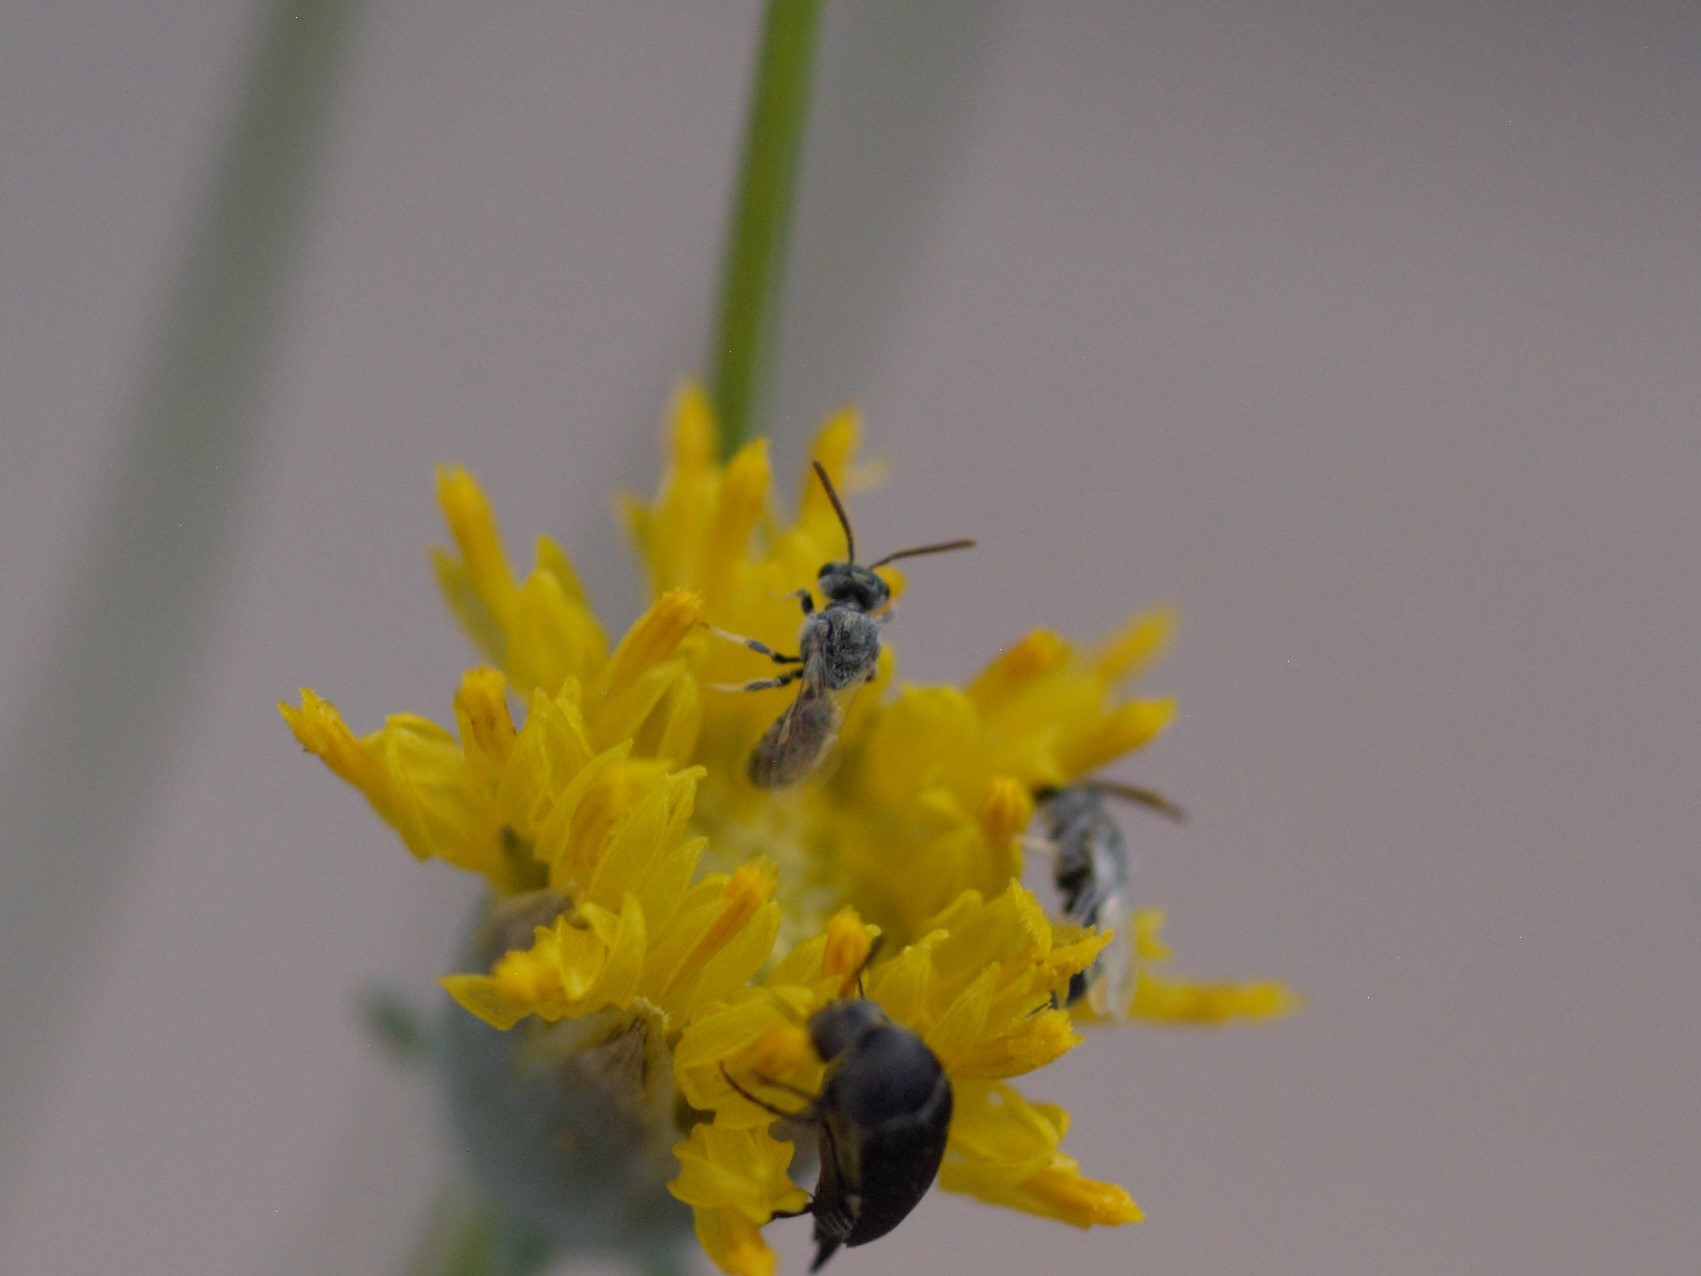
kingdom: Animalia
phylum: Arthropoda
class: Insecta
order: Hymenoptera
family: Halictidae
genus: Dialictus
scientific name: Dialictus
